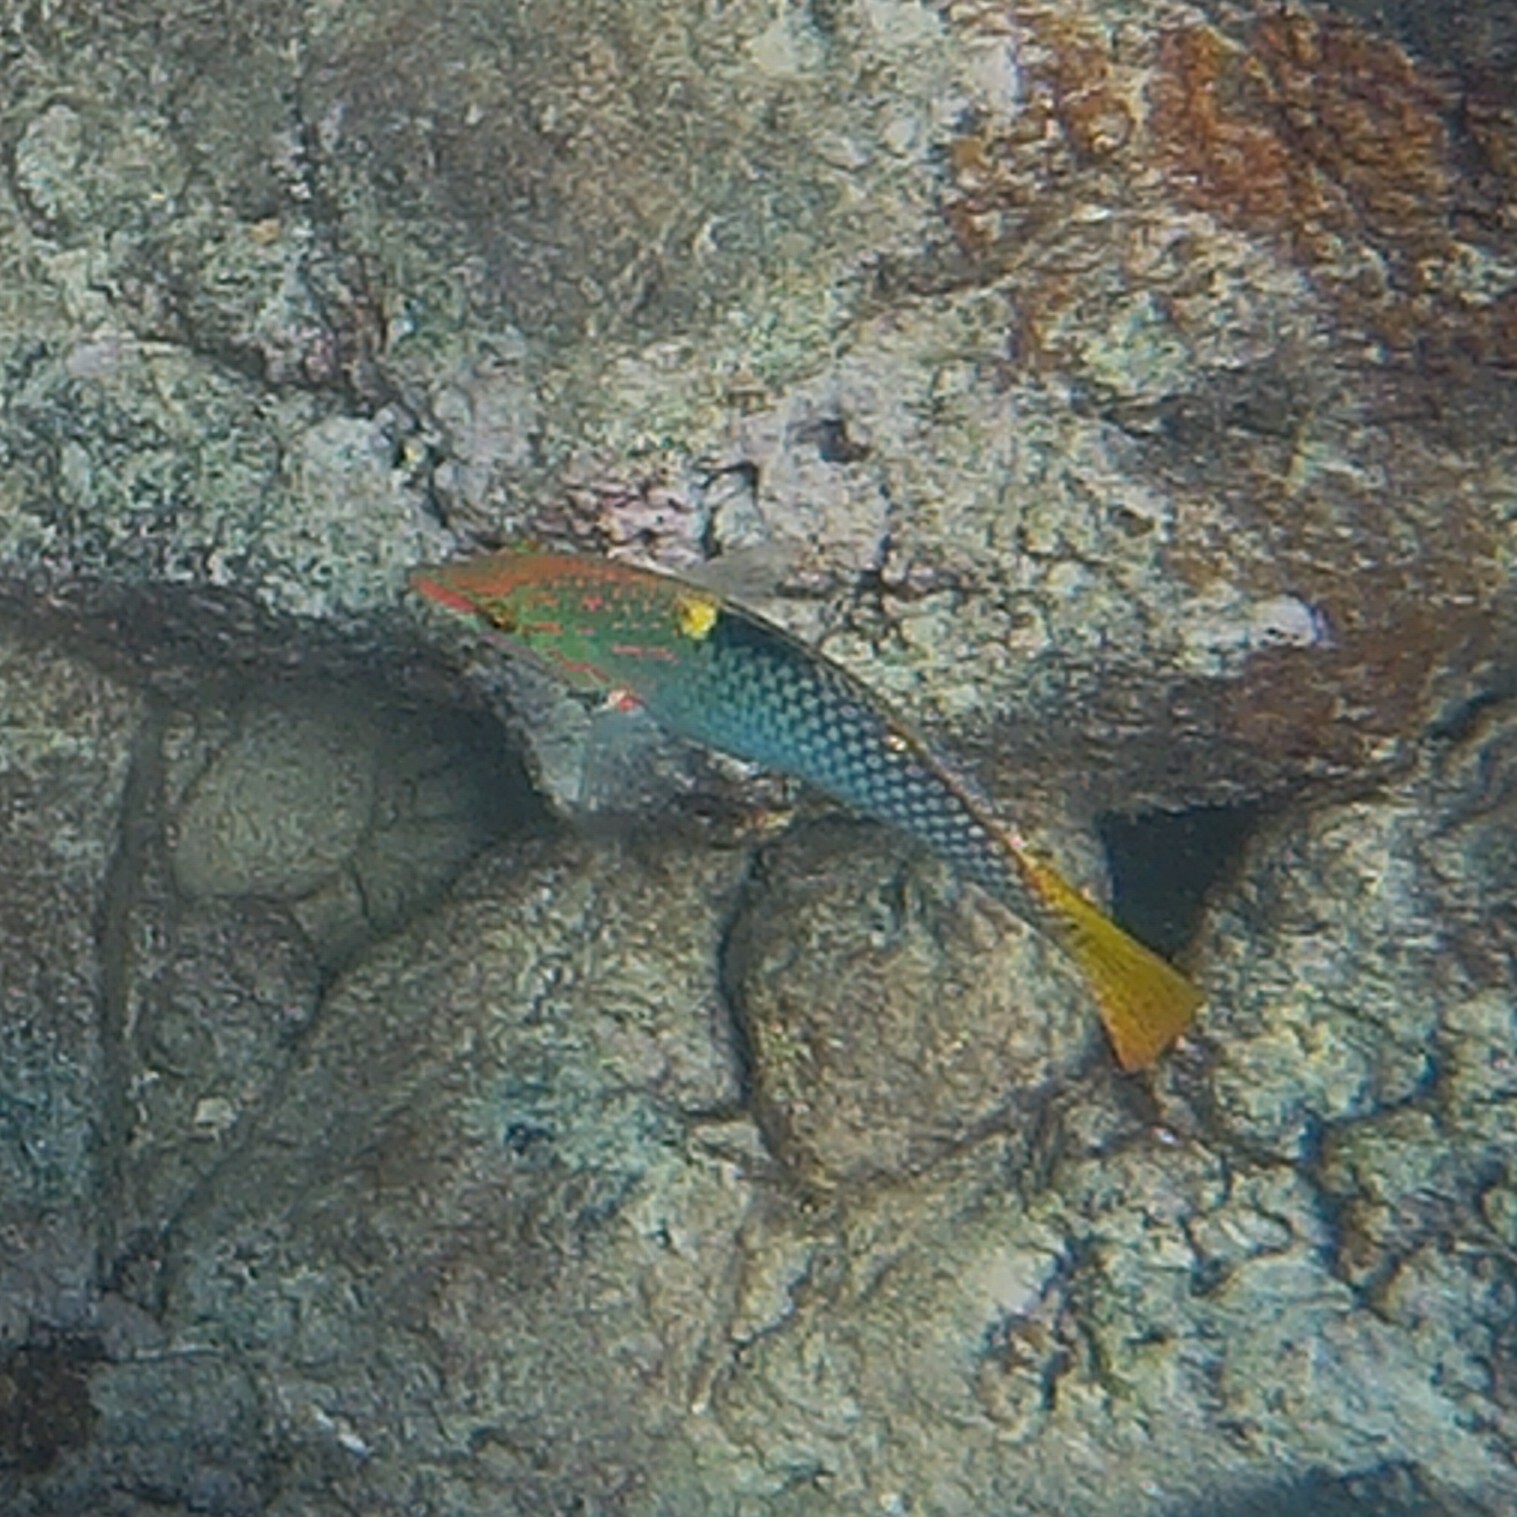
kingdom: Animalia
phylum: Chordata
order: Perciformes
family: Labridae
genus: Halichoeres
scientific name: Halichoeres hortulanus
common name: Checkerboard wrasse
